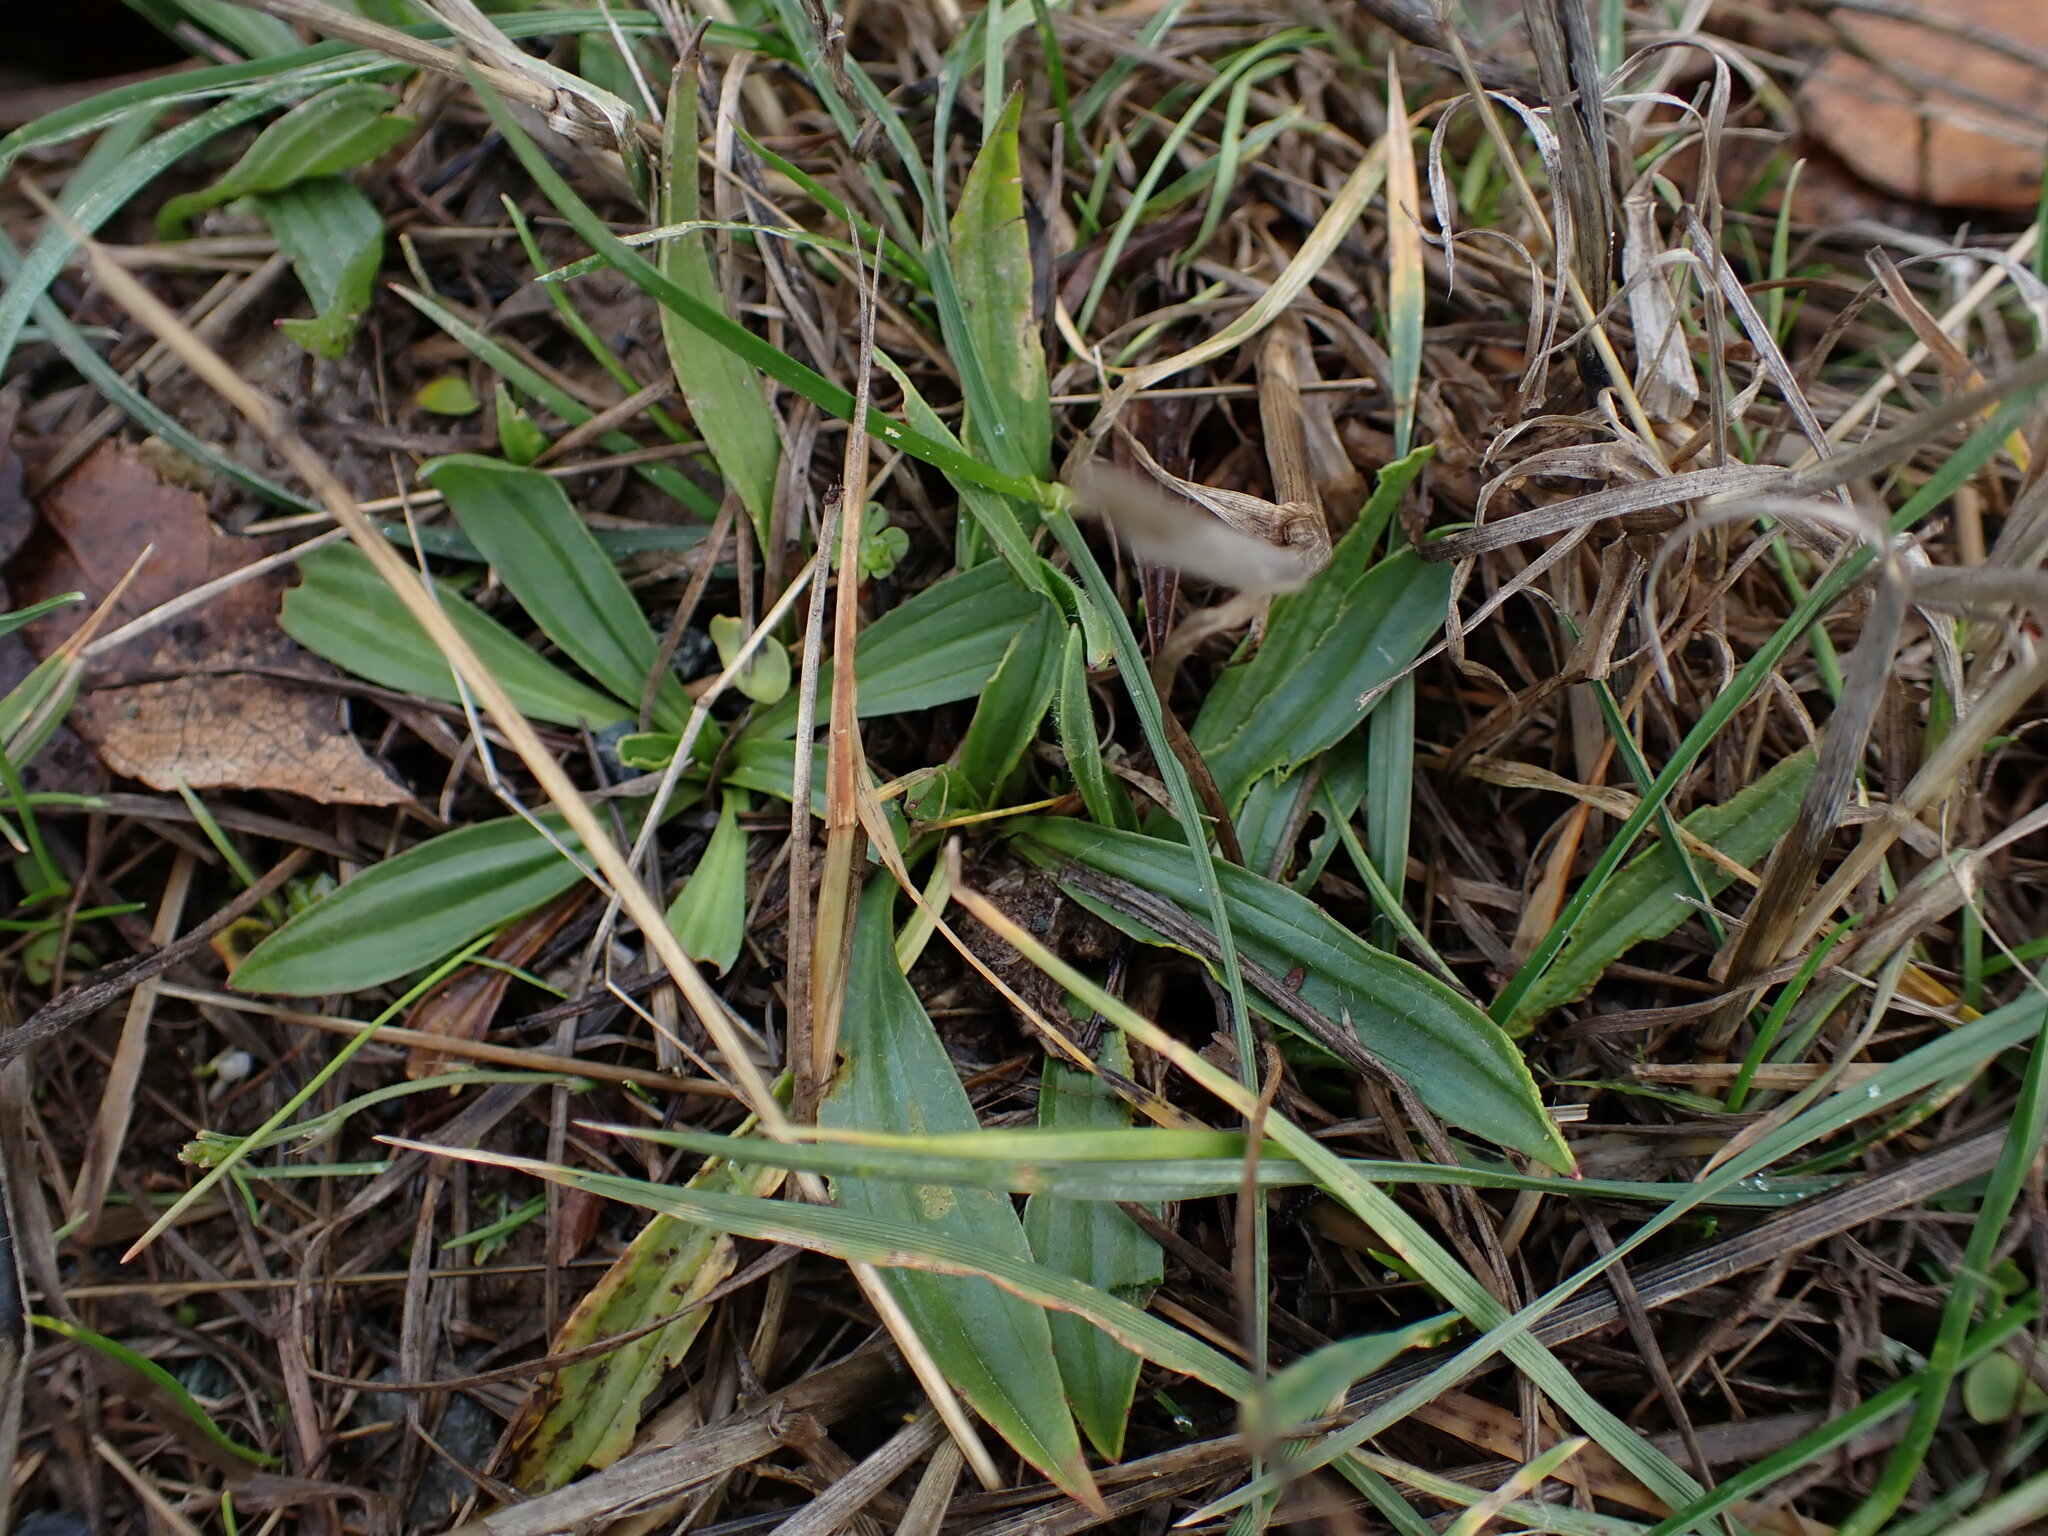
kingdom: Plantae
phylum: Tracheophyta
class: Magnoliopsida
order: Lamiales
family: Plantaginaceae
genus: Plantago
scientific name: Plantago lanceolata
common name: Ribwort plantain
